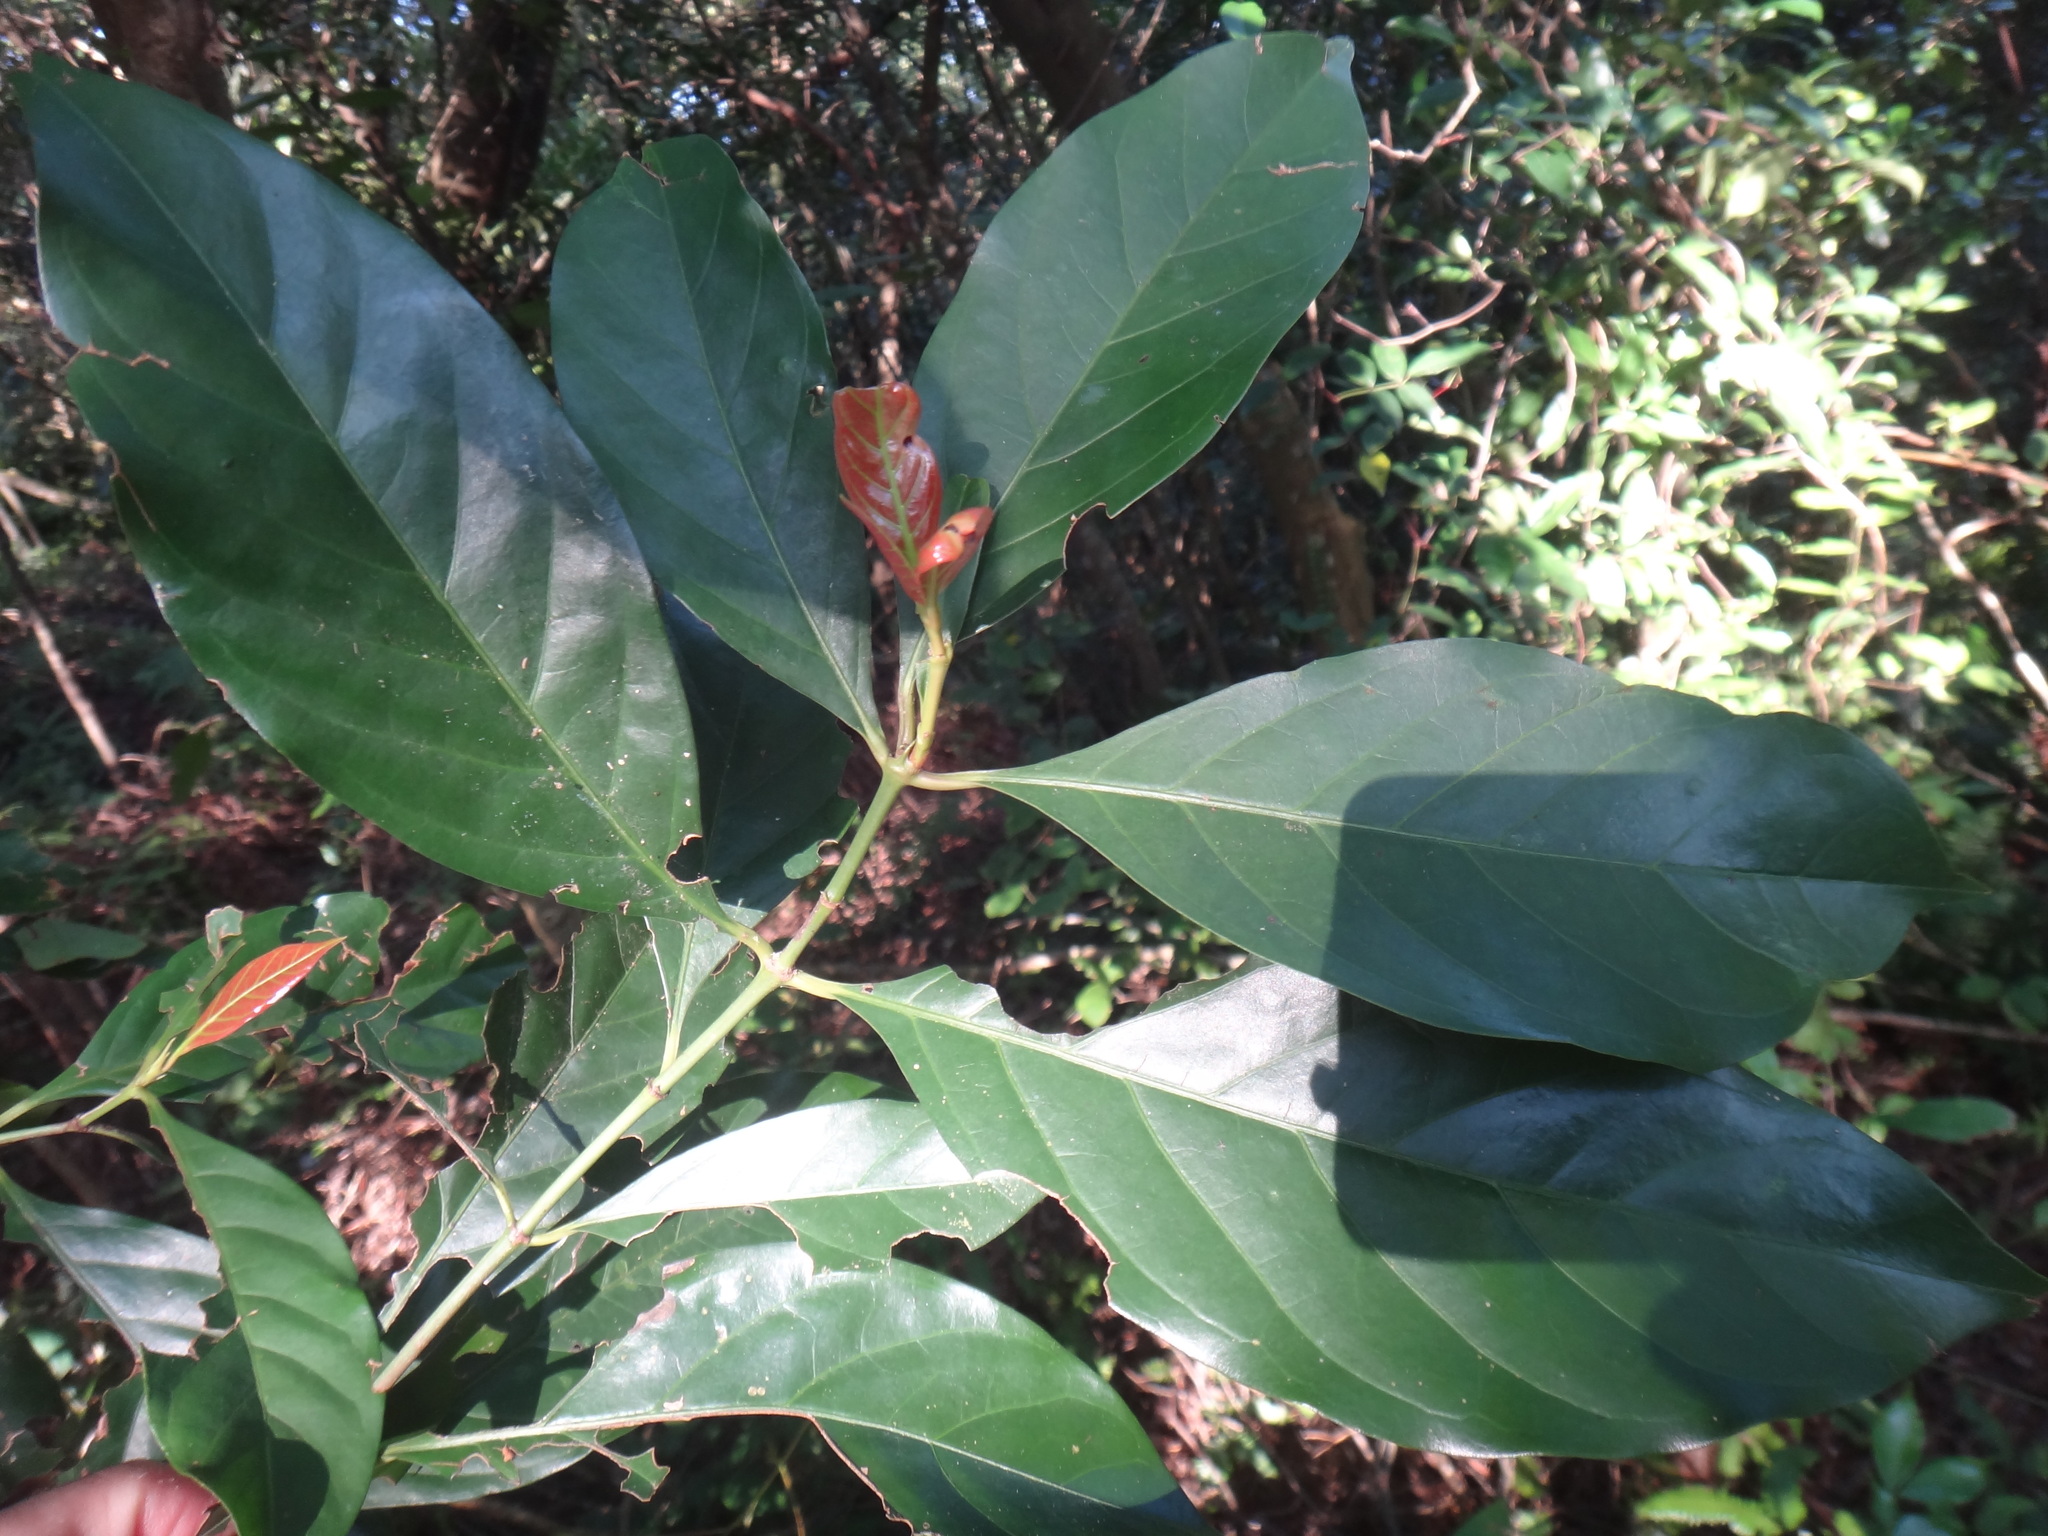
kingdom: Plantae
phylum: Tracheophyta
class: Magnoliopsida
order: Gentianales
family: Rubiaceae
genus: Aidia
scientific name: Aidia cochinchinensis
